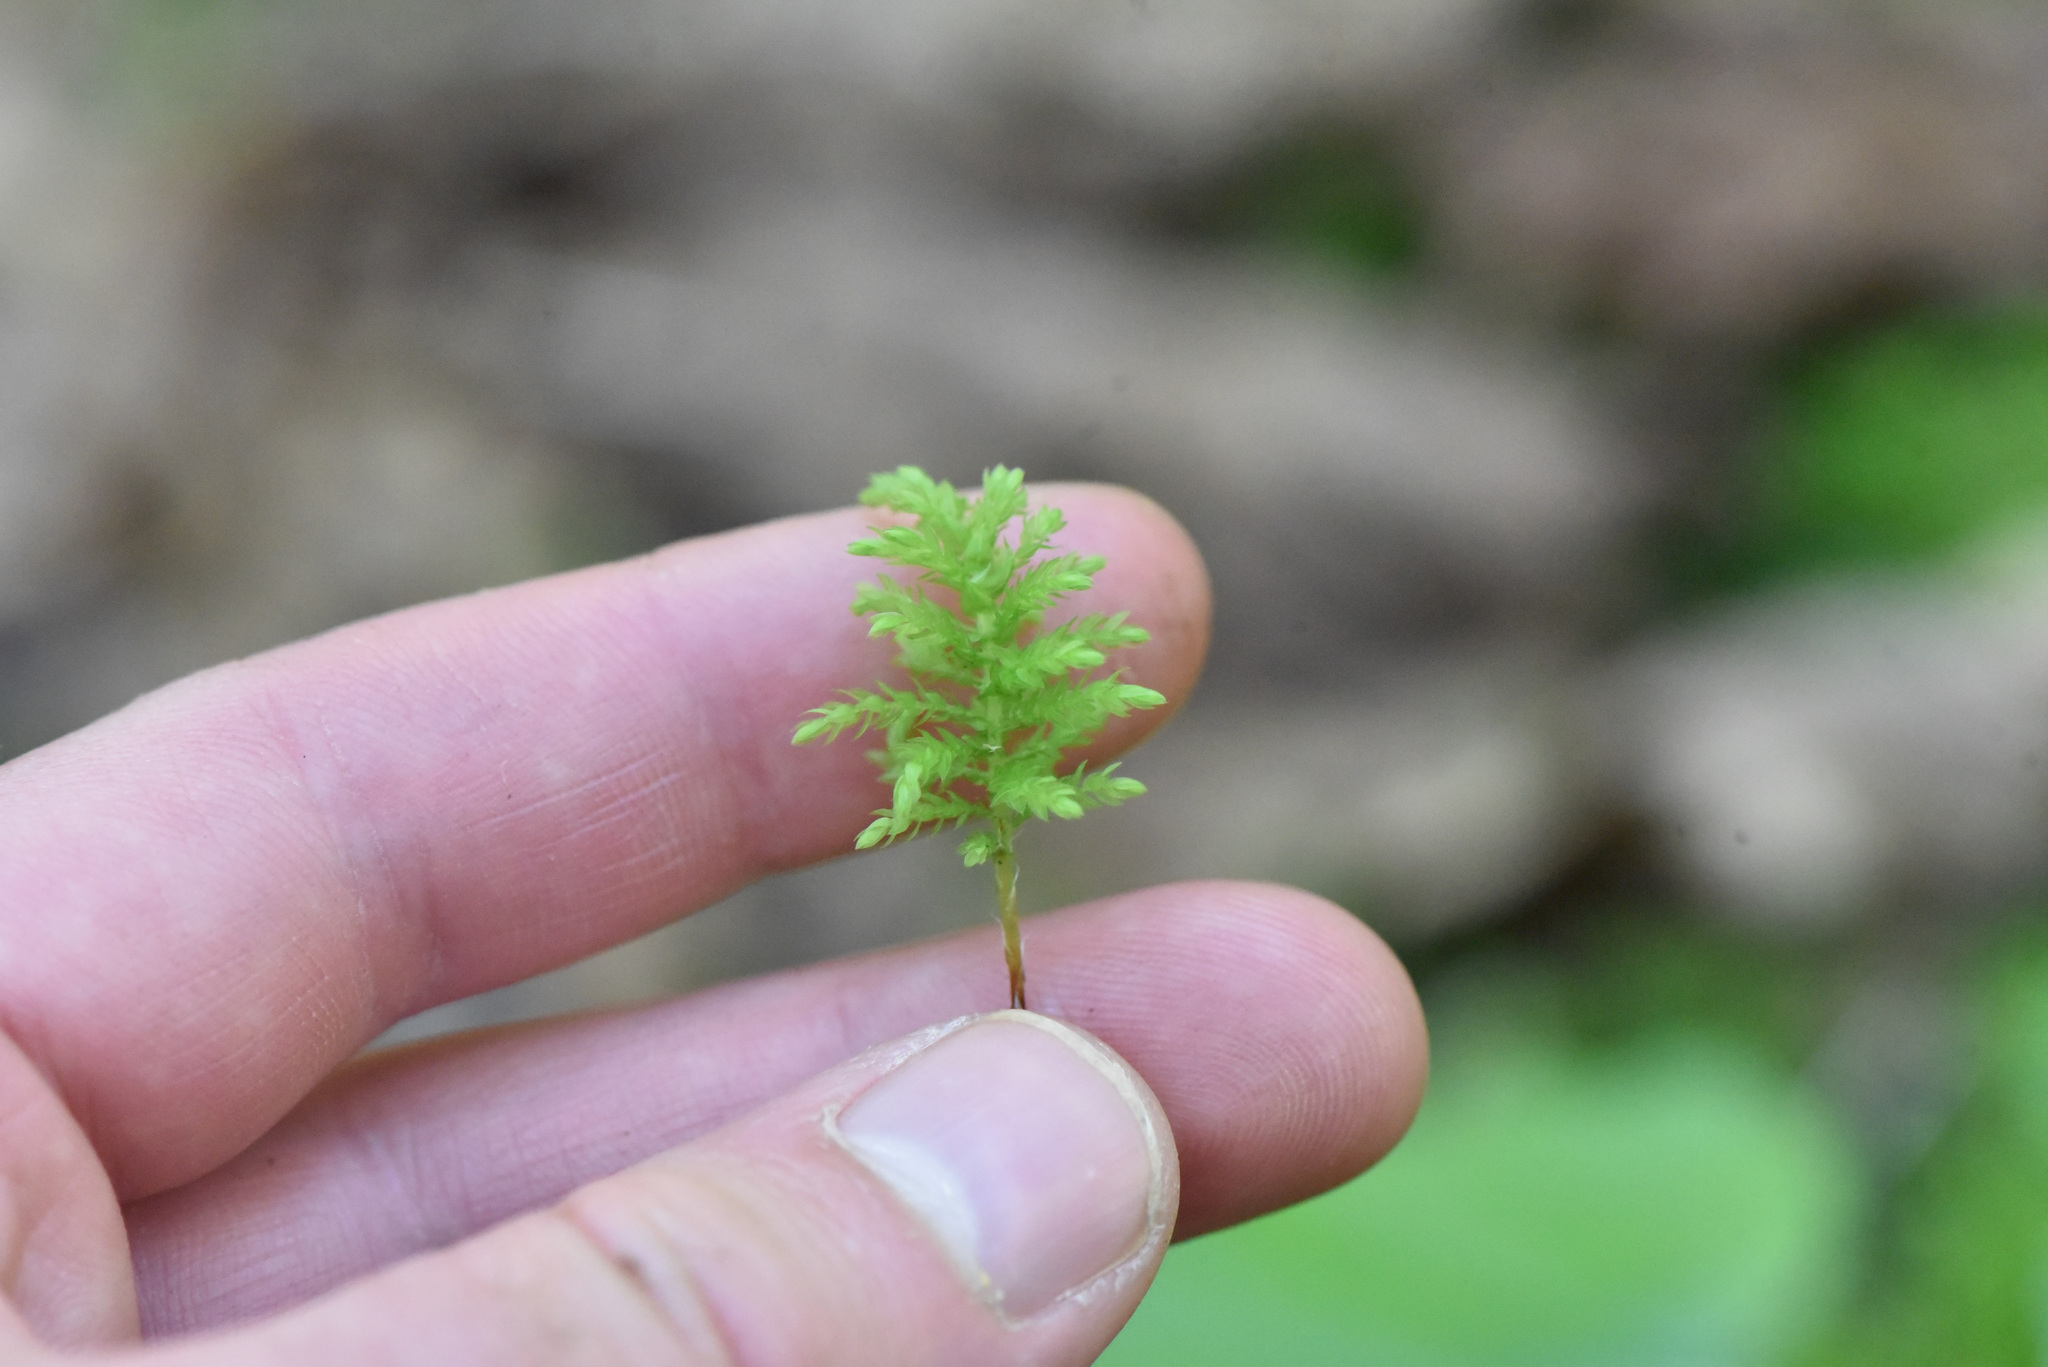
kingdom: Plantae
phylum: Bryophyta
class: Bryopsida
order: Bryales
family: Mniaceae
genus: Leucolepis
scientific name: Leucolepis acanthoneura
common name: Leucolepis umbrella moss
